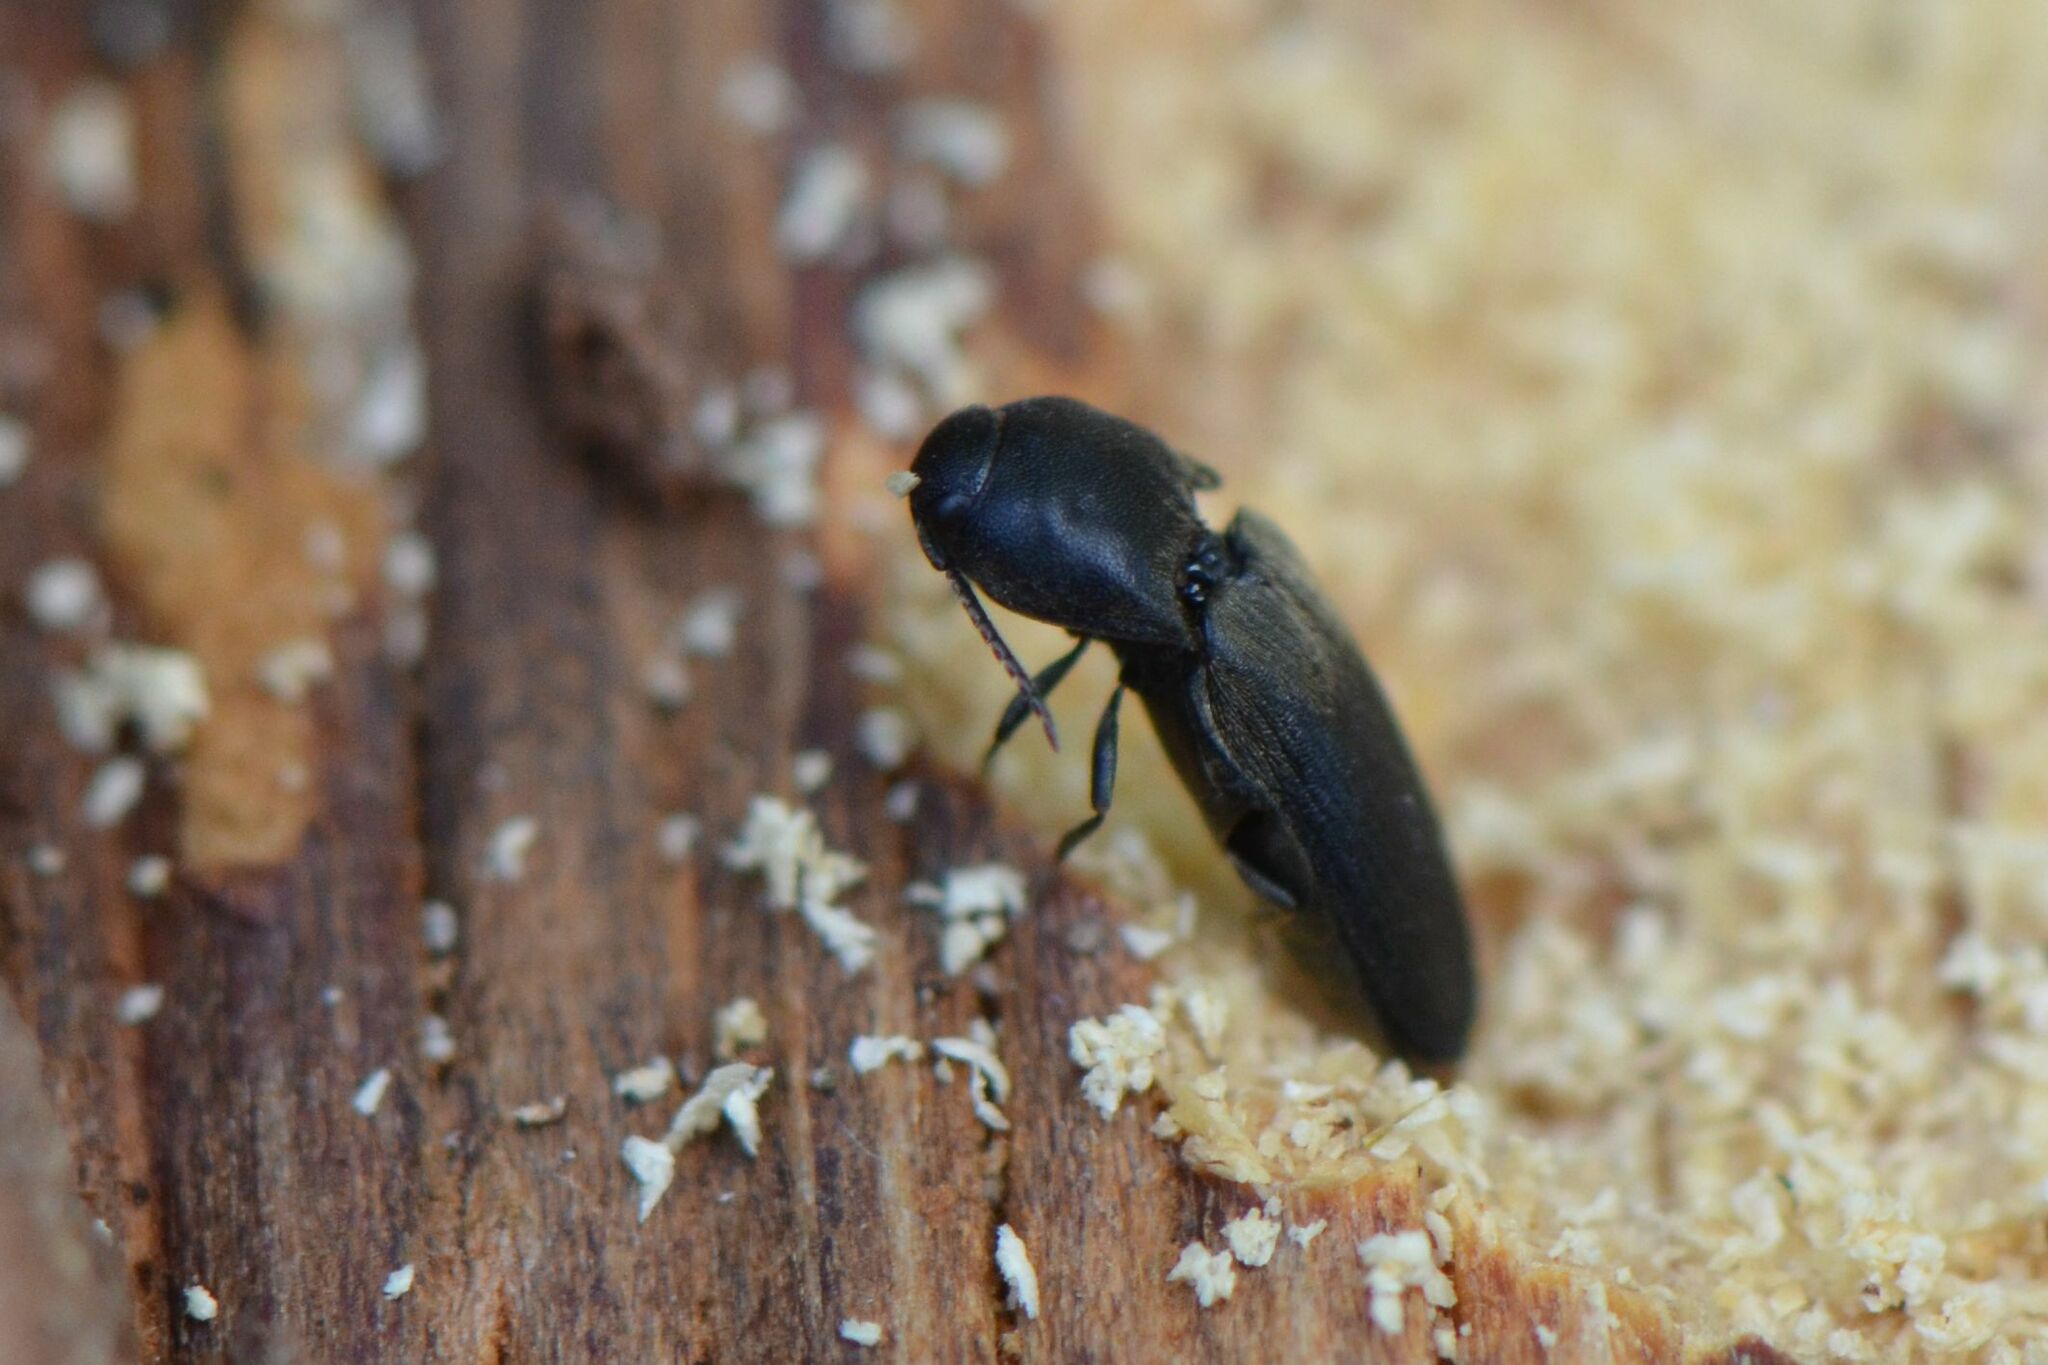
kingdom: Animalia
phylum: Arthropoda
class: Insecta
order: Coleoptera
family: Eucnemidae
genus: Dromaeolus
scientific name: Dromaeolus barnabita
